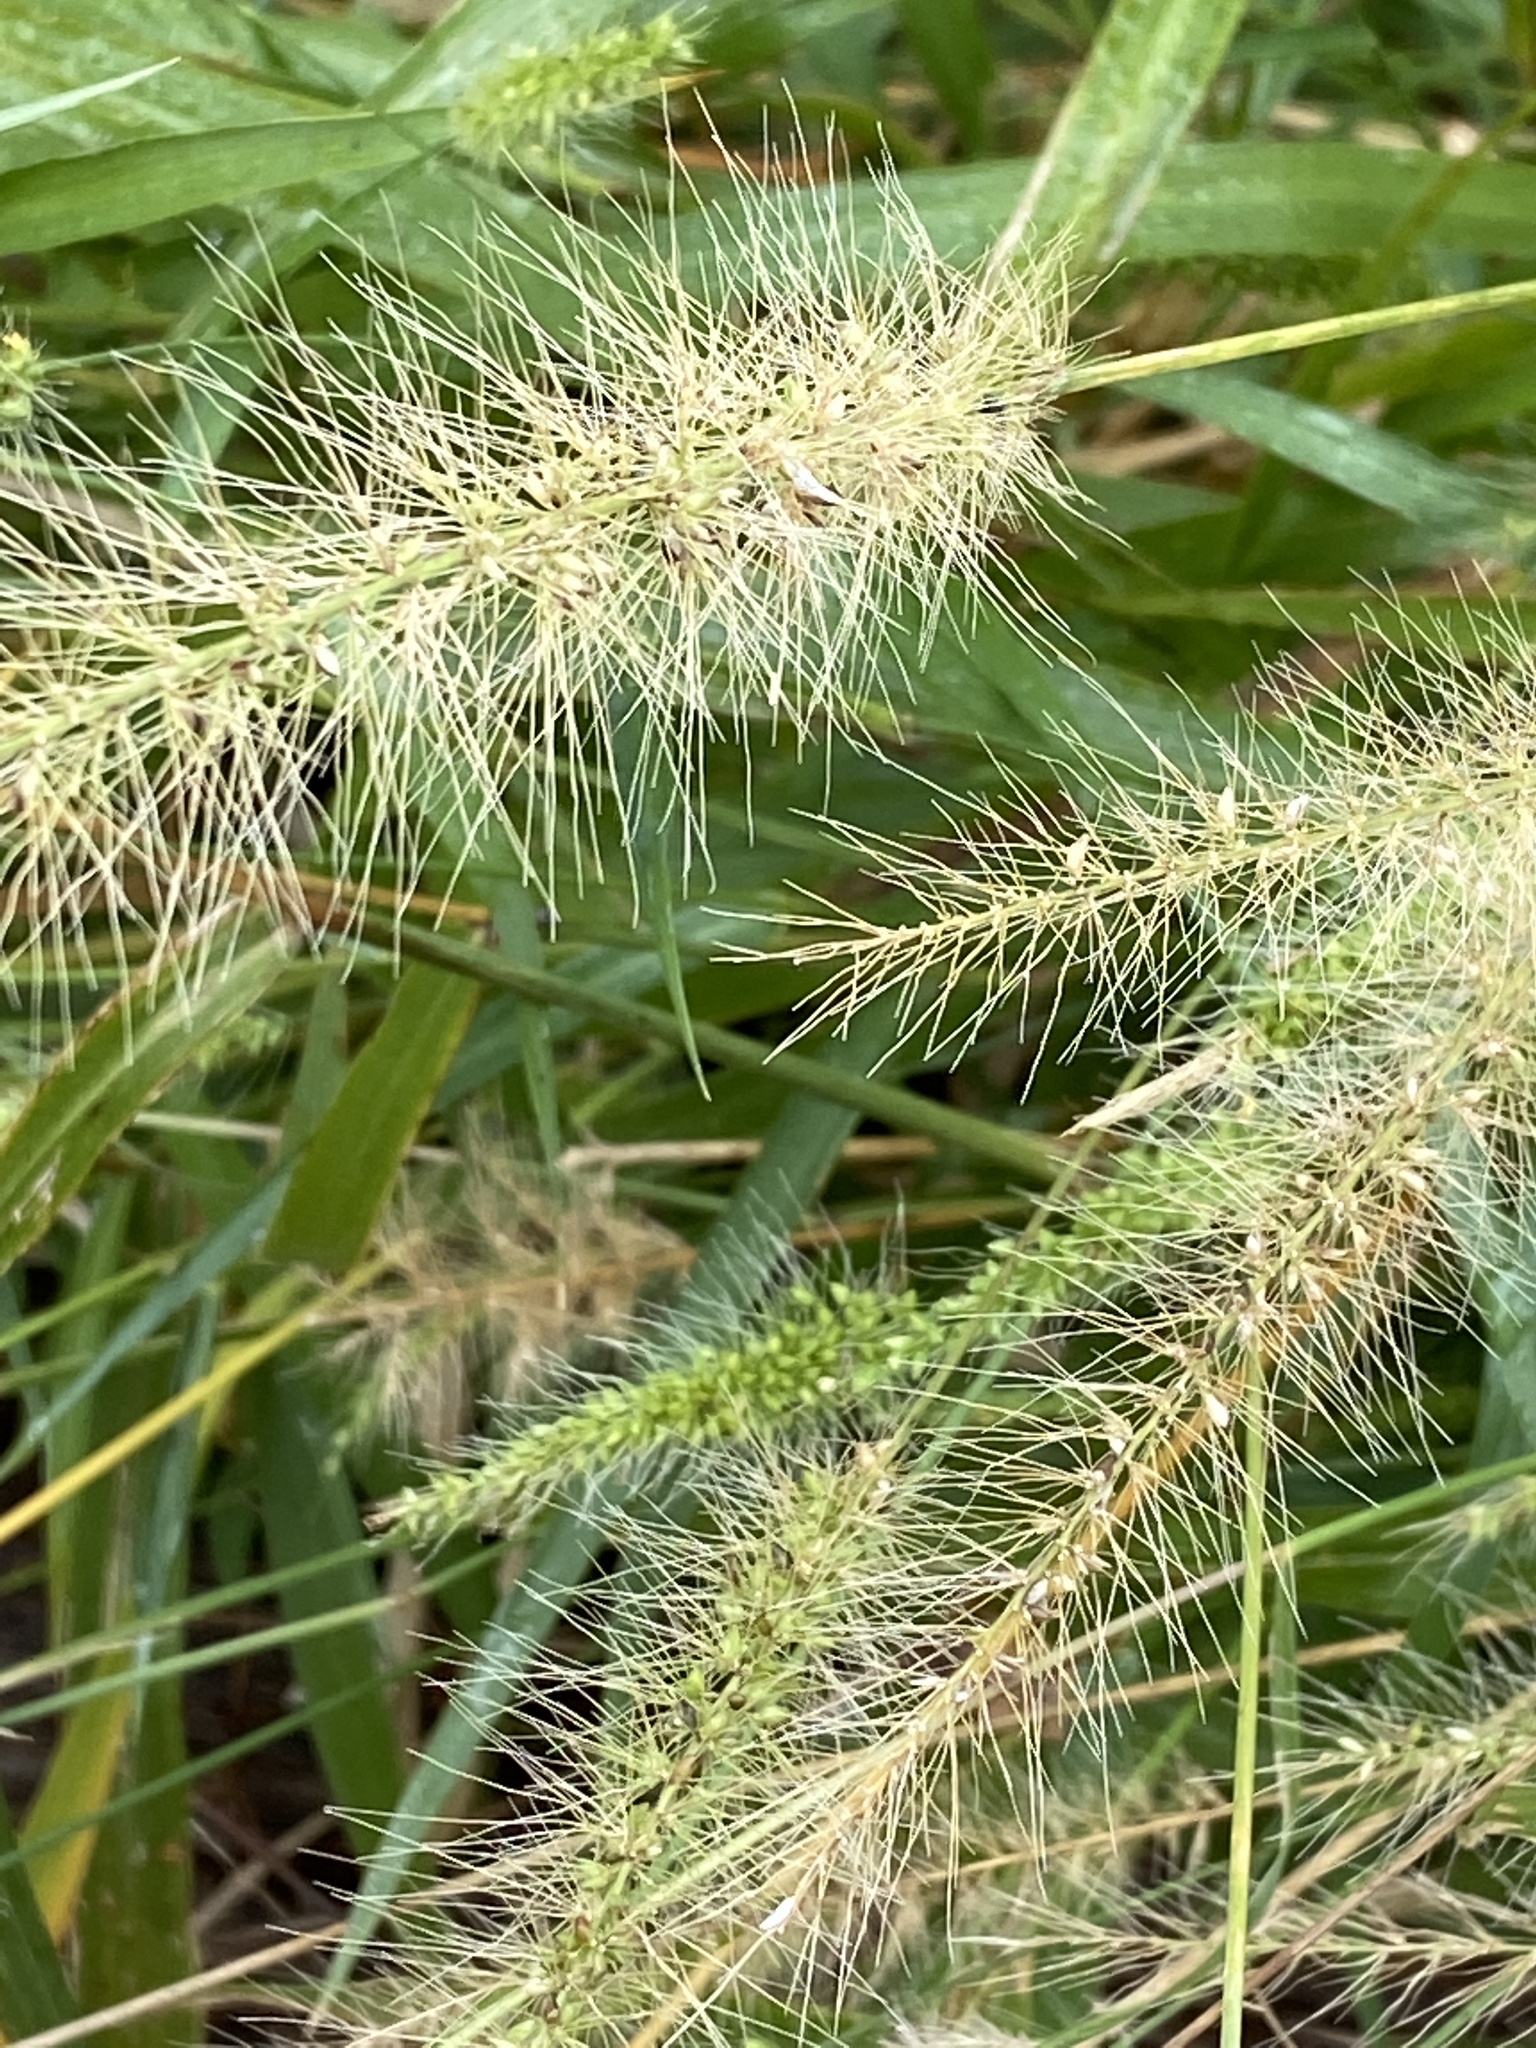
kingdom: Plantae
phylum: Tracheophyta
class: Liliopsida
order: Poales
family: Poaceae
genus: Setaria
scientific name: Setaria scheelei
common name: Southwestern bristle grass
